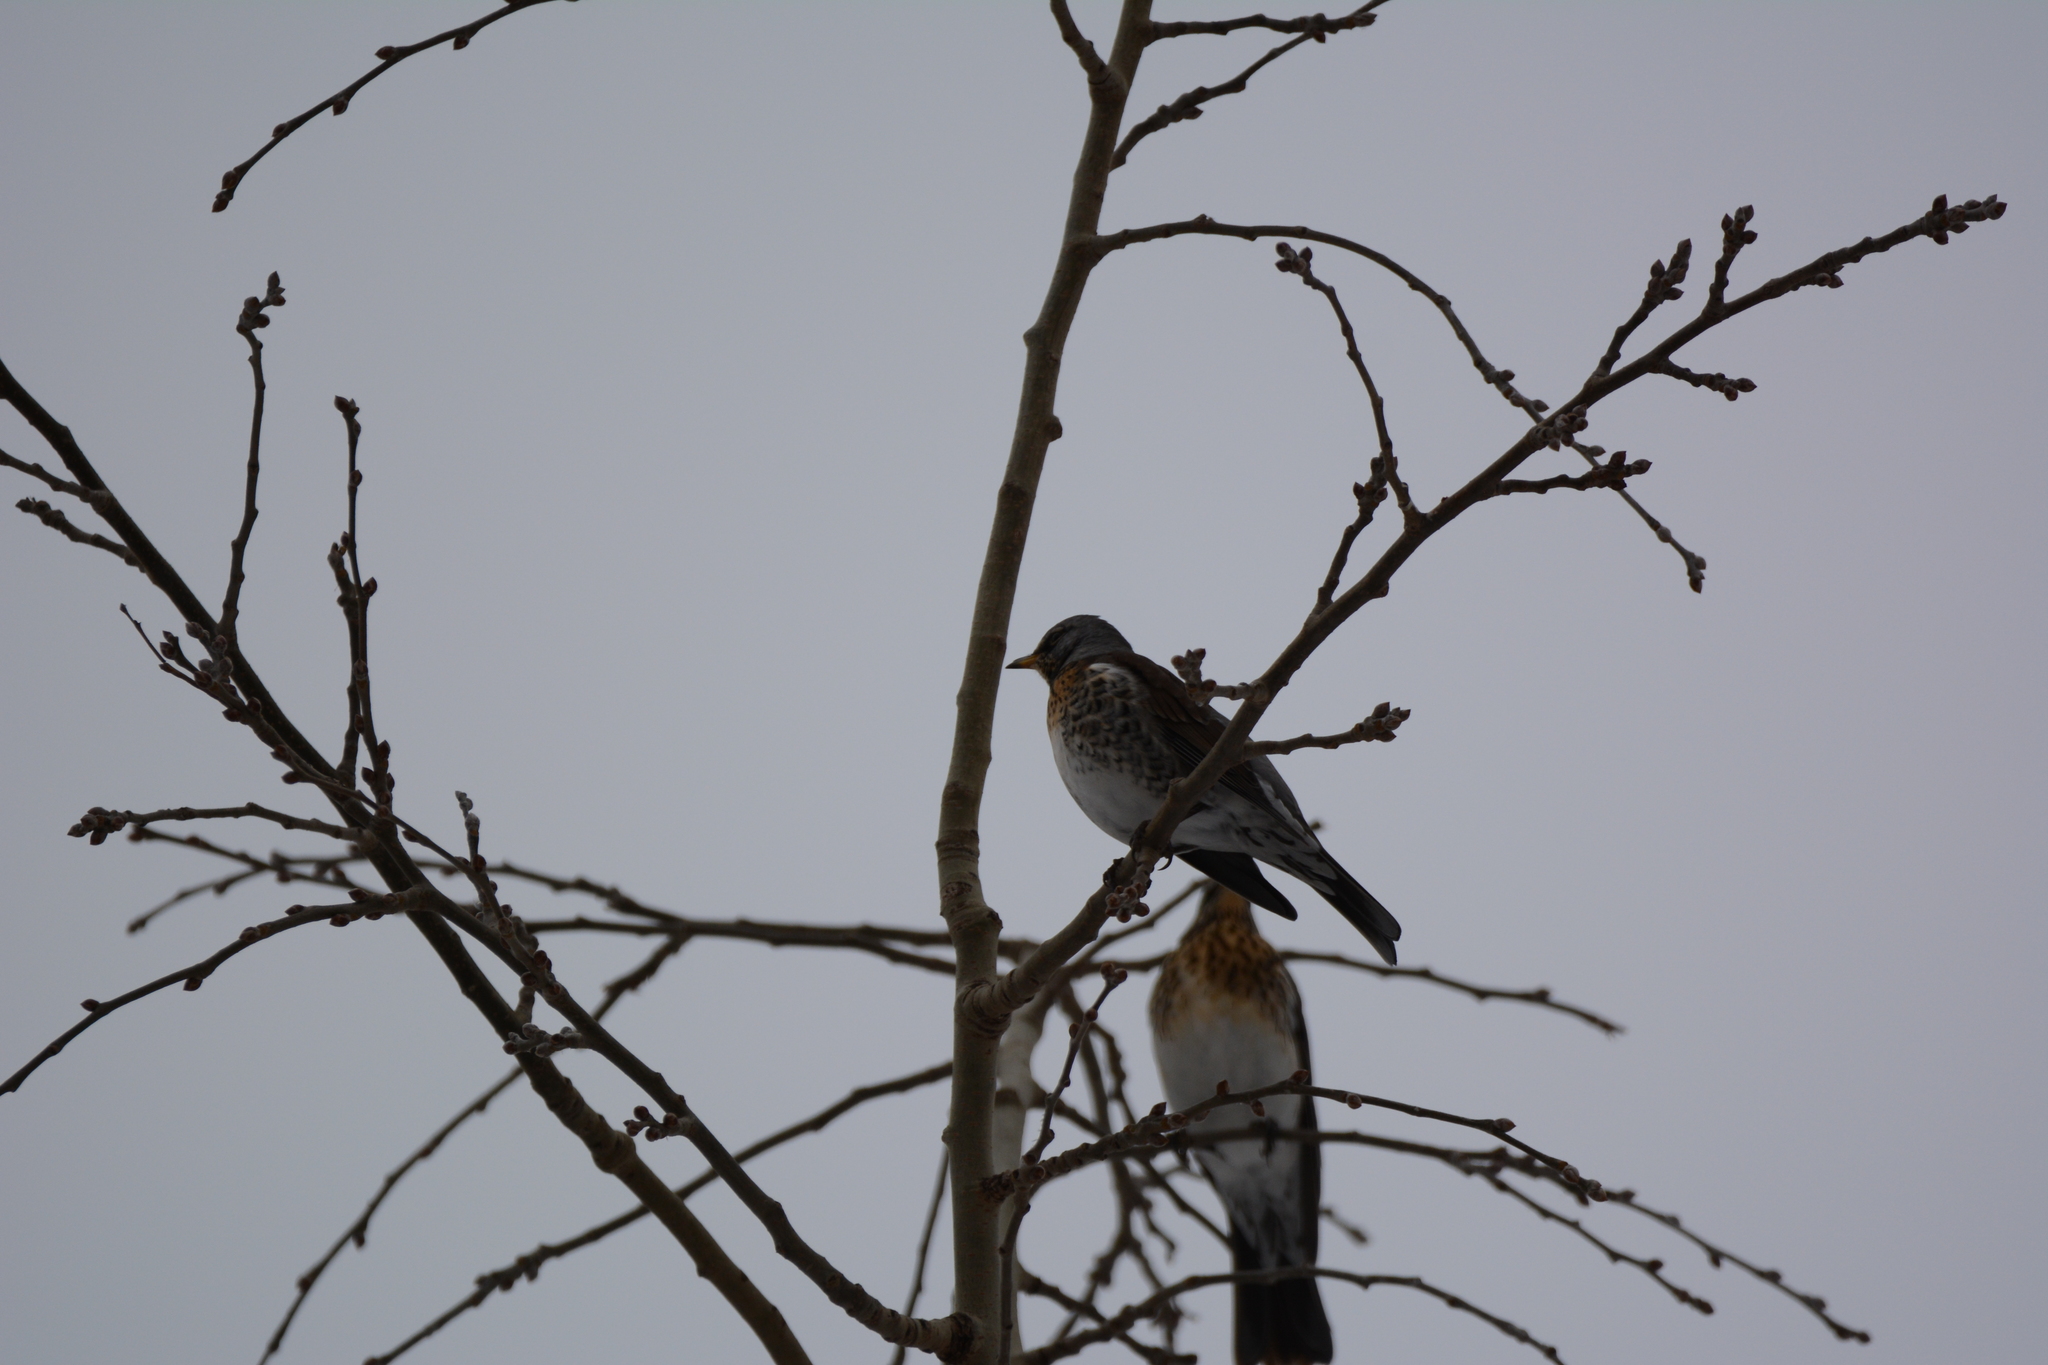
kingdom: Animalia
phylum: Chordata
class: Aves
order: Passeriformes
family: Turdidae
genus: Turdus
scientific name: Turdus pilaris
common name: Fieldfare
